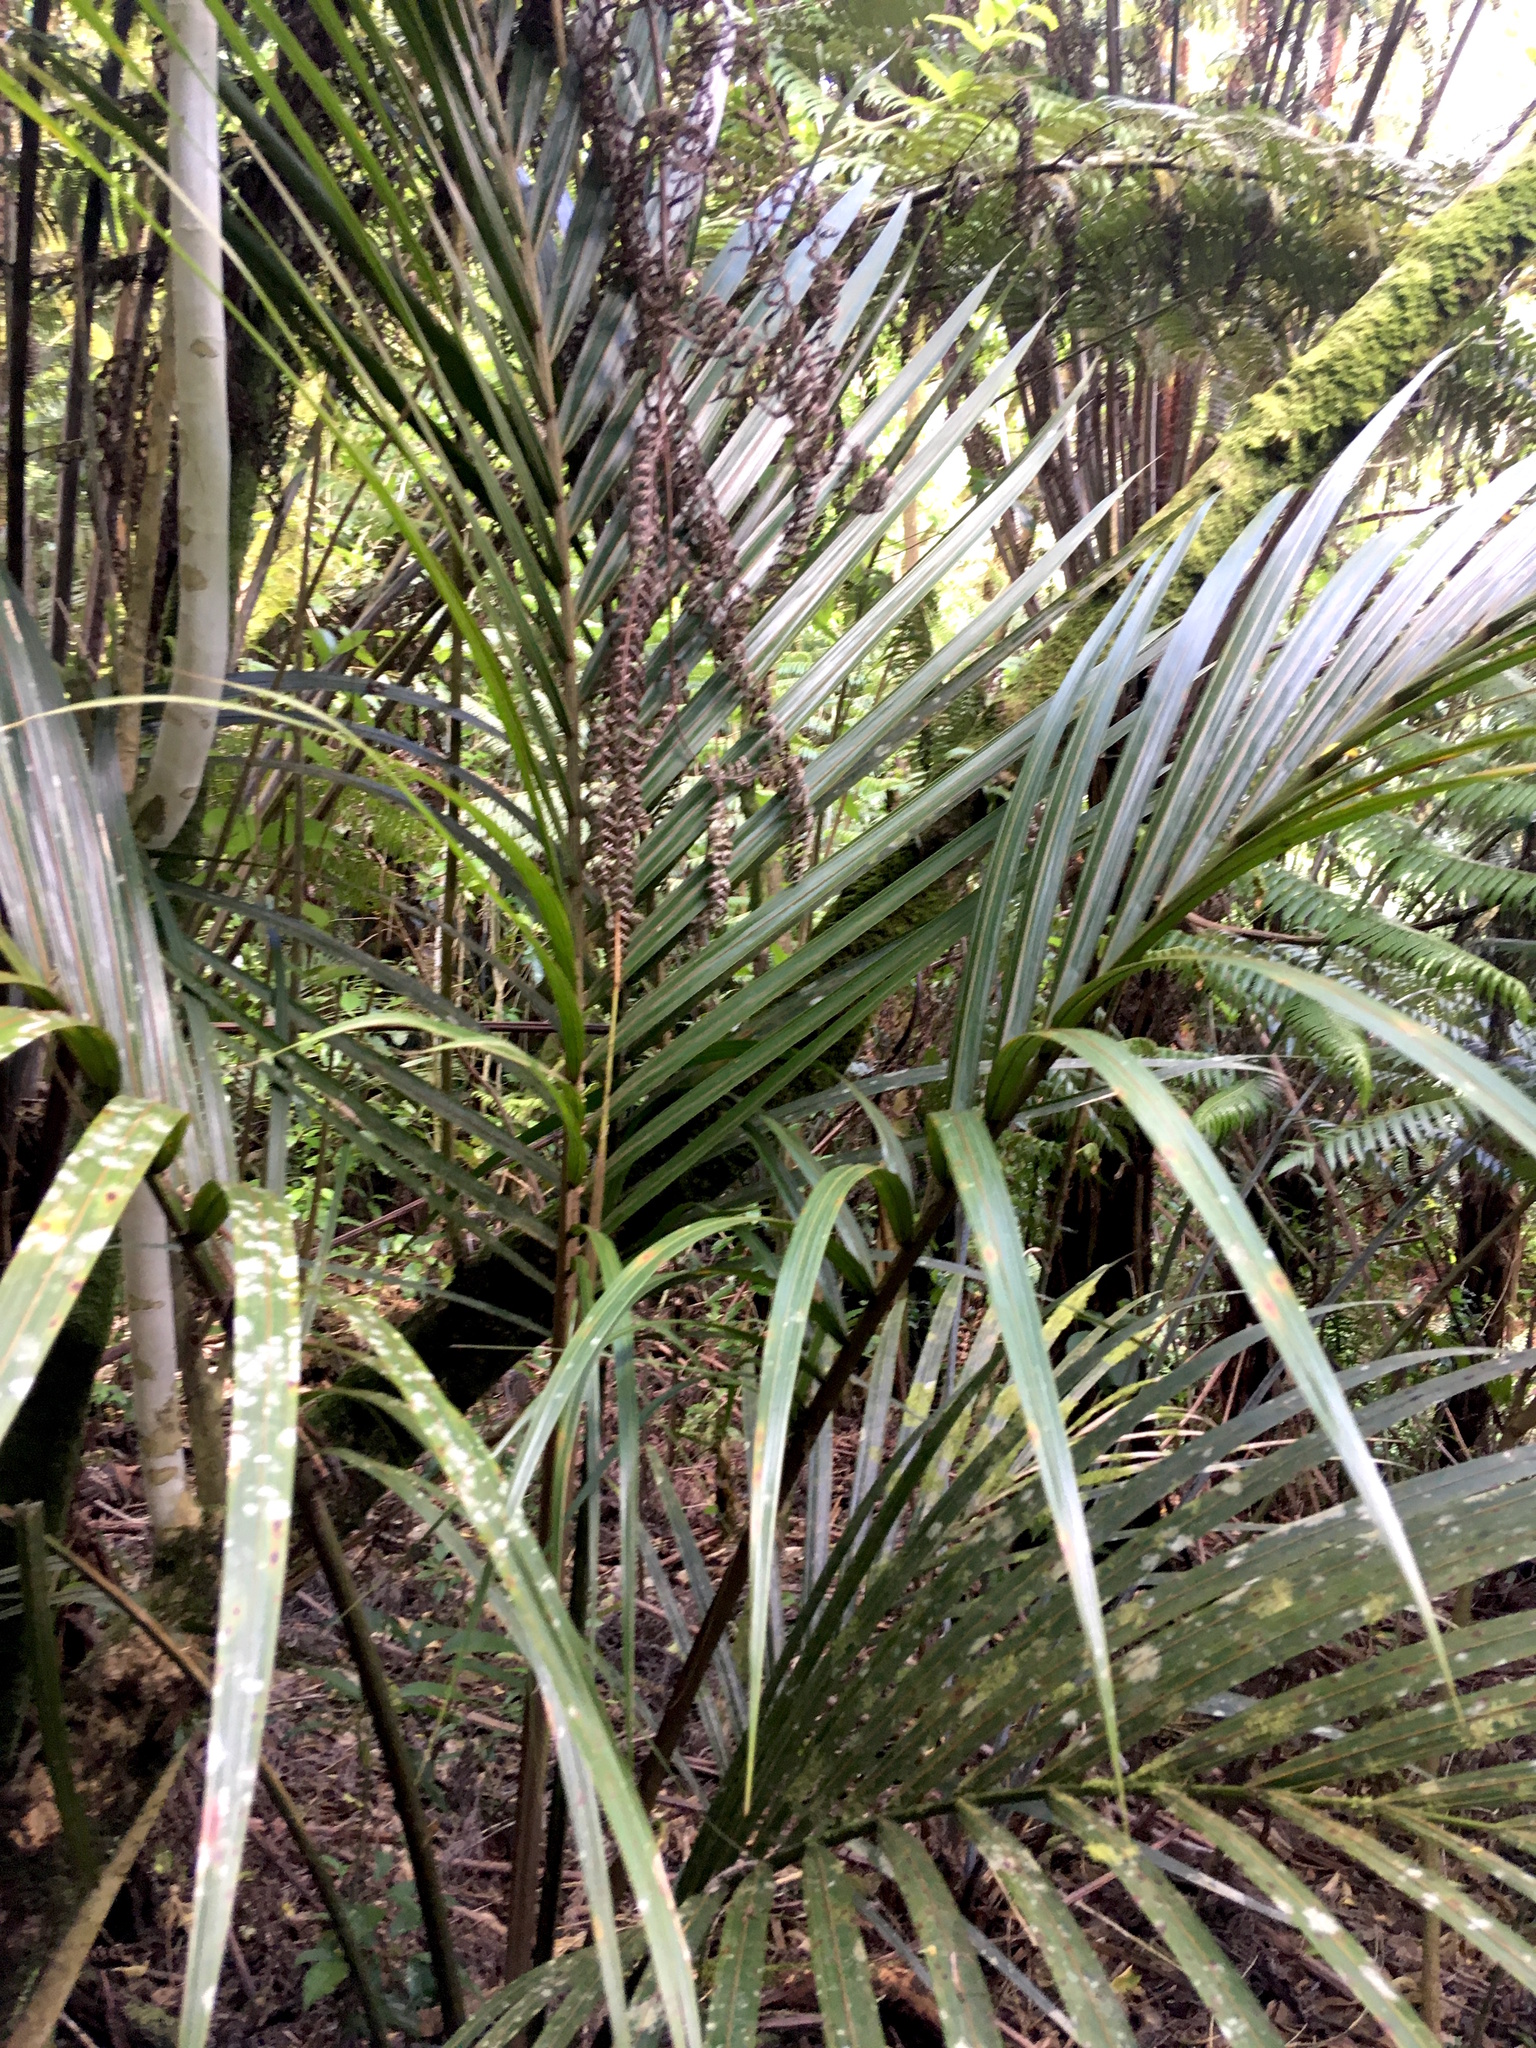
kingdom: Plantae
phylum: Tracheophyta
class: Liliopsida
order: Arecales
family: Arecaceae
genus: Rhopalostylis
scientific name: Rhopalostylis sapida
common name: Feather-duster palm
